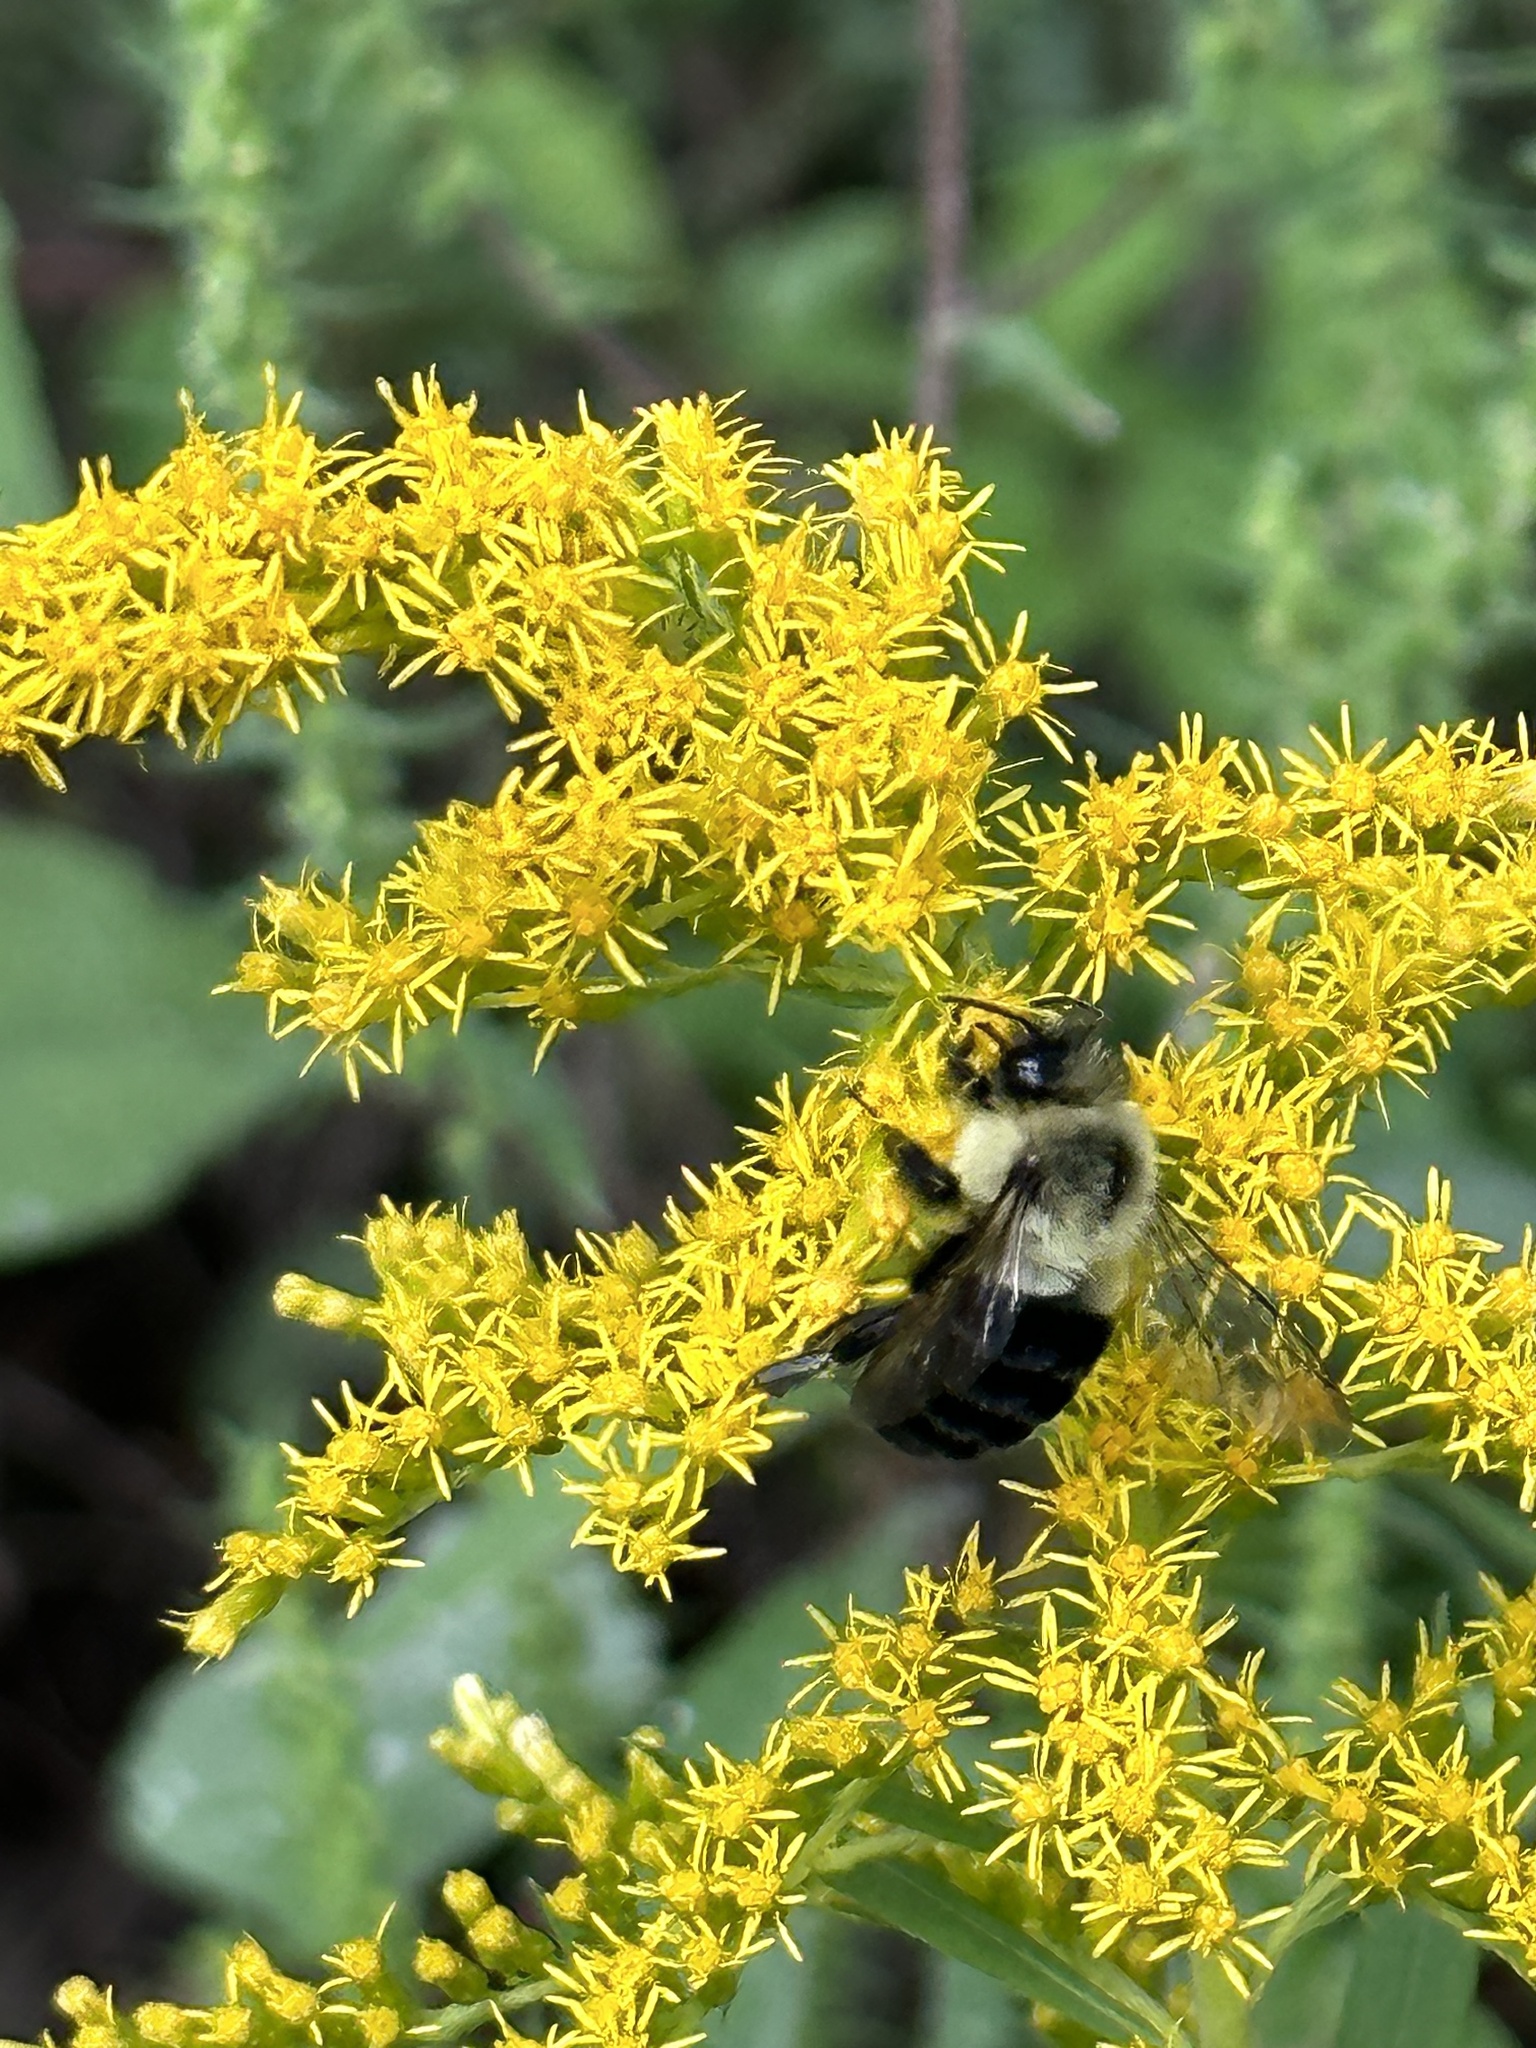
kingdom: Animalia
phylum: Arthropoda
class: Insecta
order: Hymenoptera
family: Apidae
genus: Bombus
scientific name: Bombus impatiens
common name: Common eastern bumble bee
